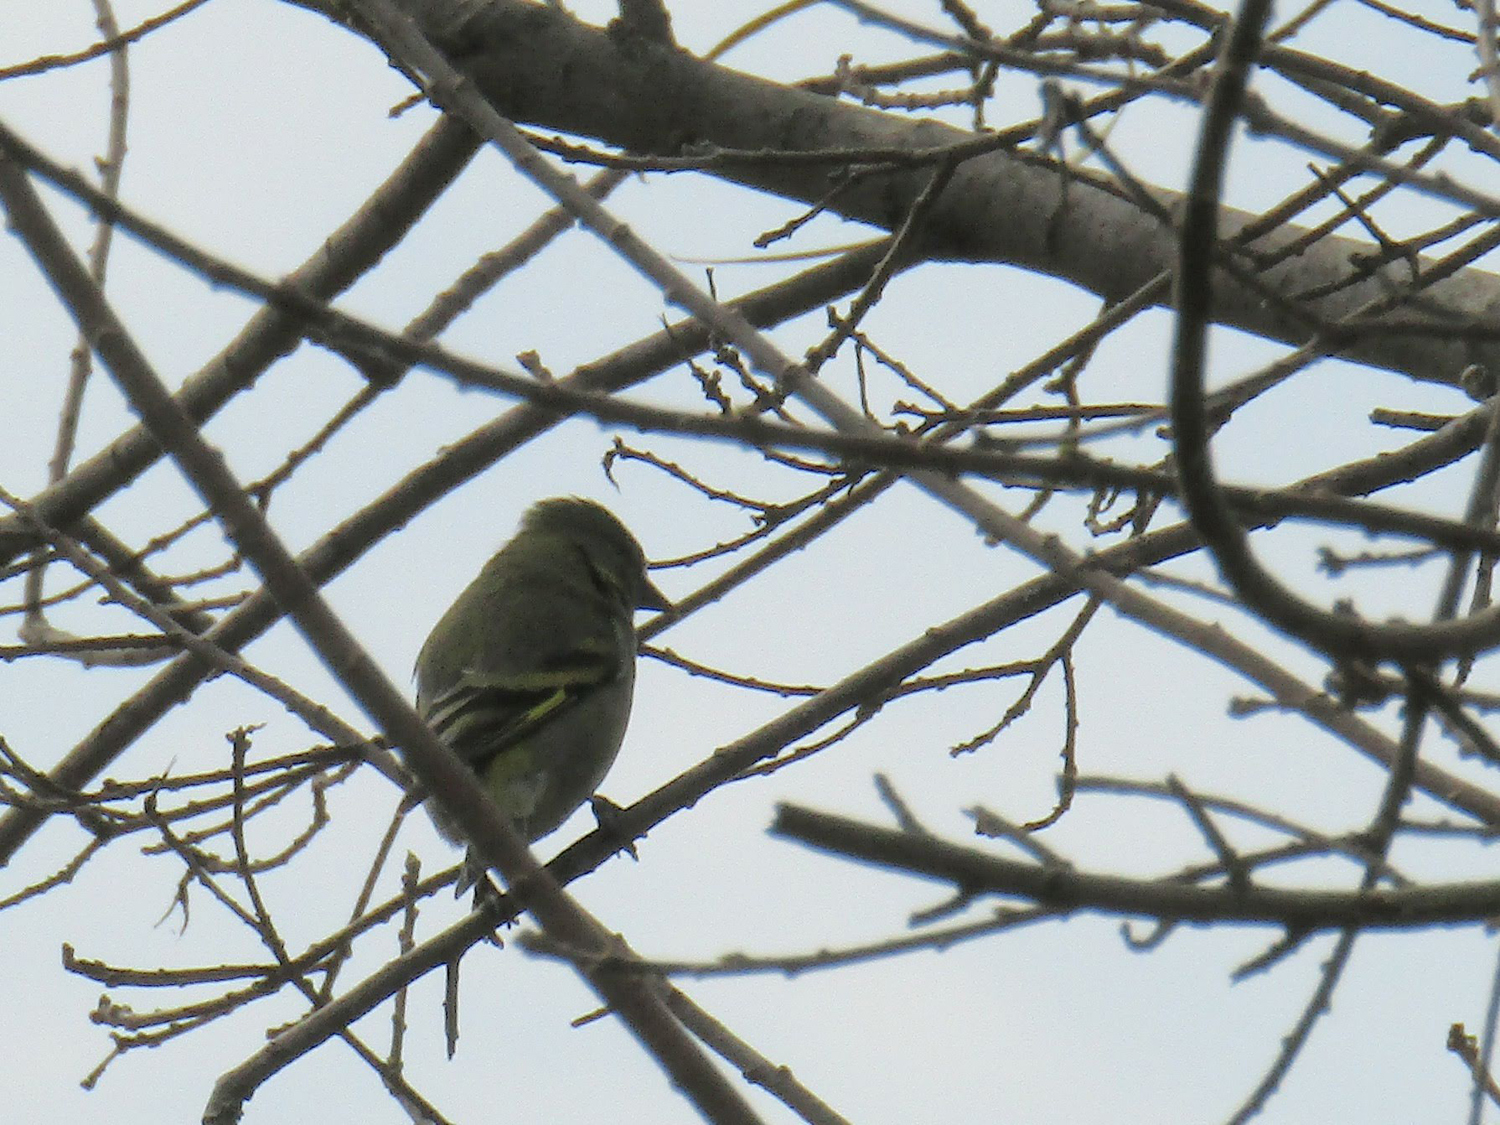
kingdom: Animalia
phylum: Chordata
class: Aves
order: Passeriformes
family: Fringillidae
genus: Spinus
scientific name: Spinus magellanicus
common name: Hooded siskin
